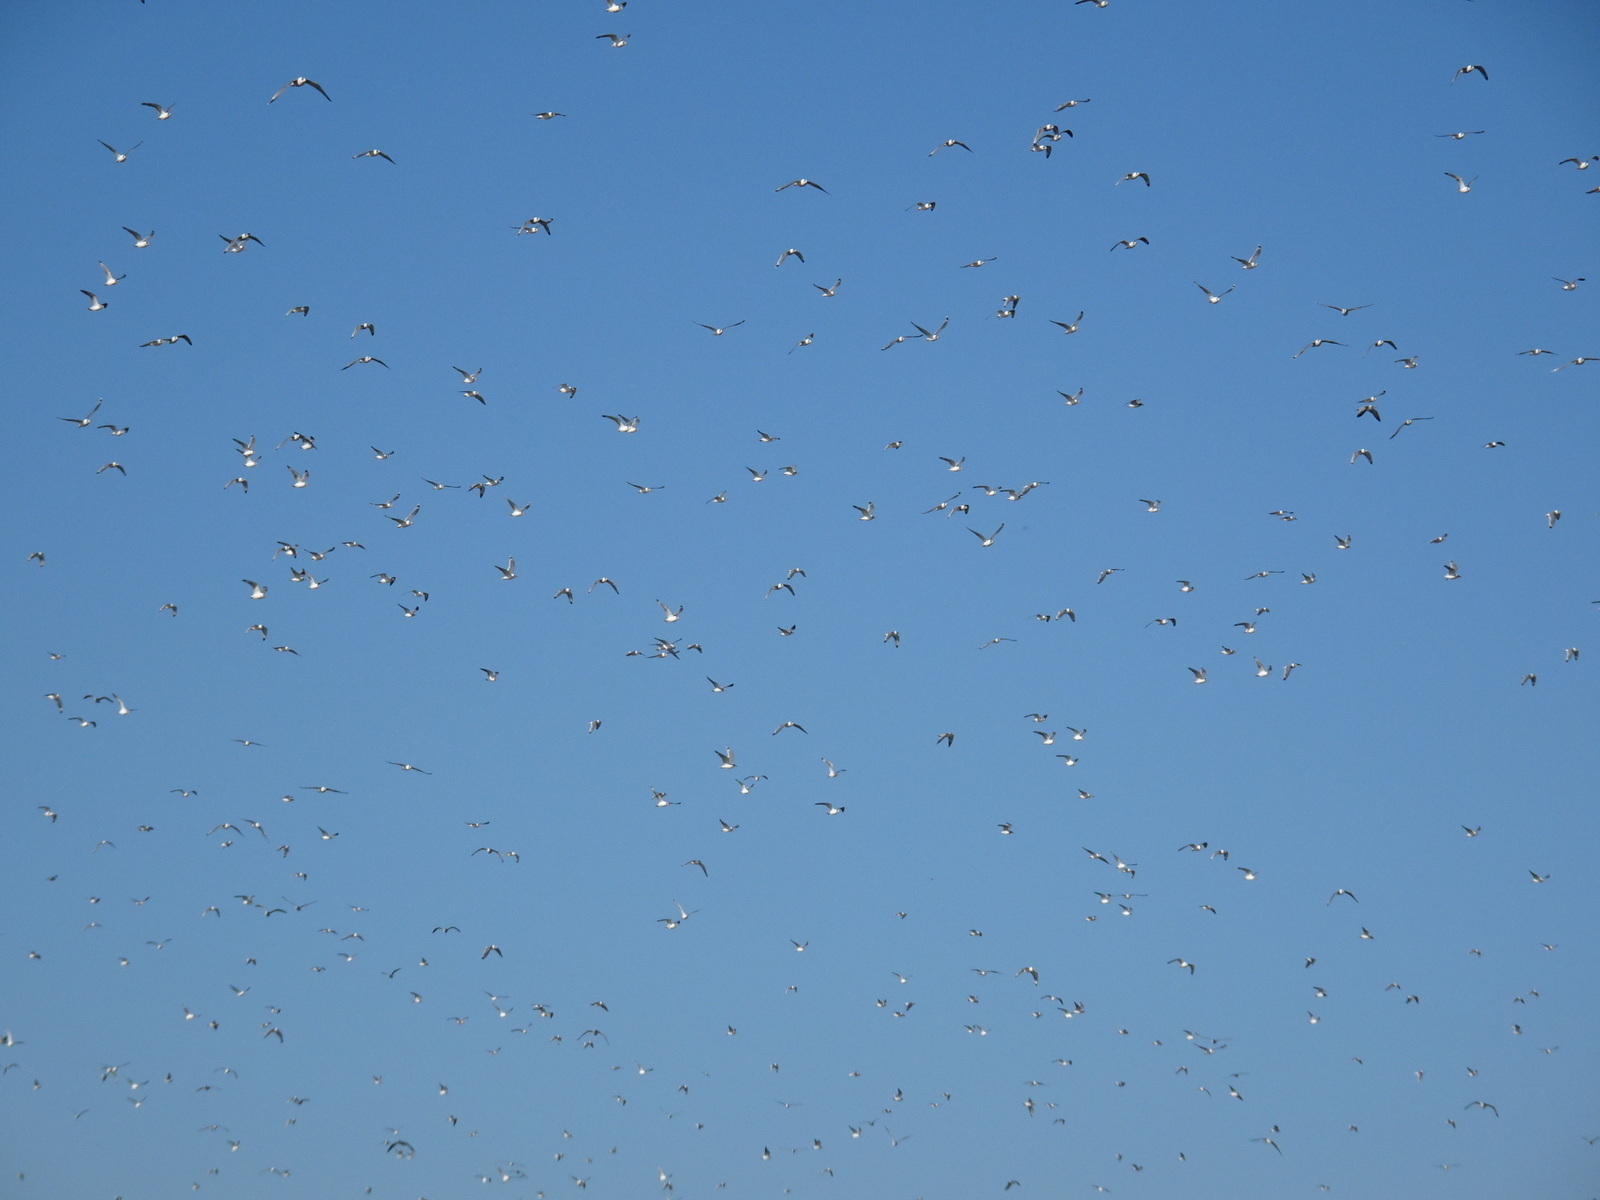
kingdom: Animalia
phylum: Chordata
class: Aves
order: Charadriiformes
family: Laridae
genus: Leucophaeus
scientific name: Leucophaeus pipixcan
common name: Franklin's gull
